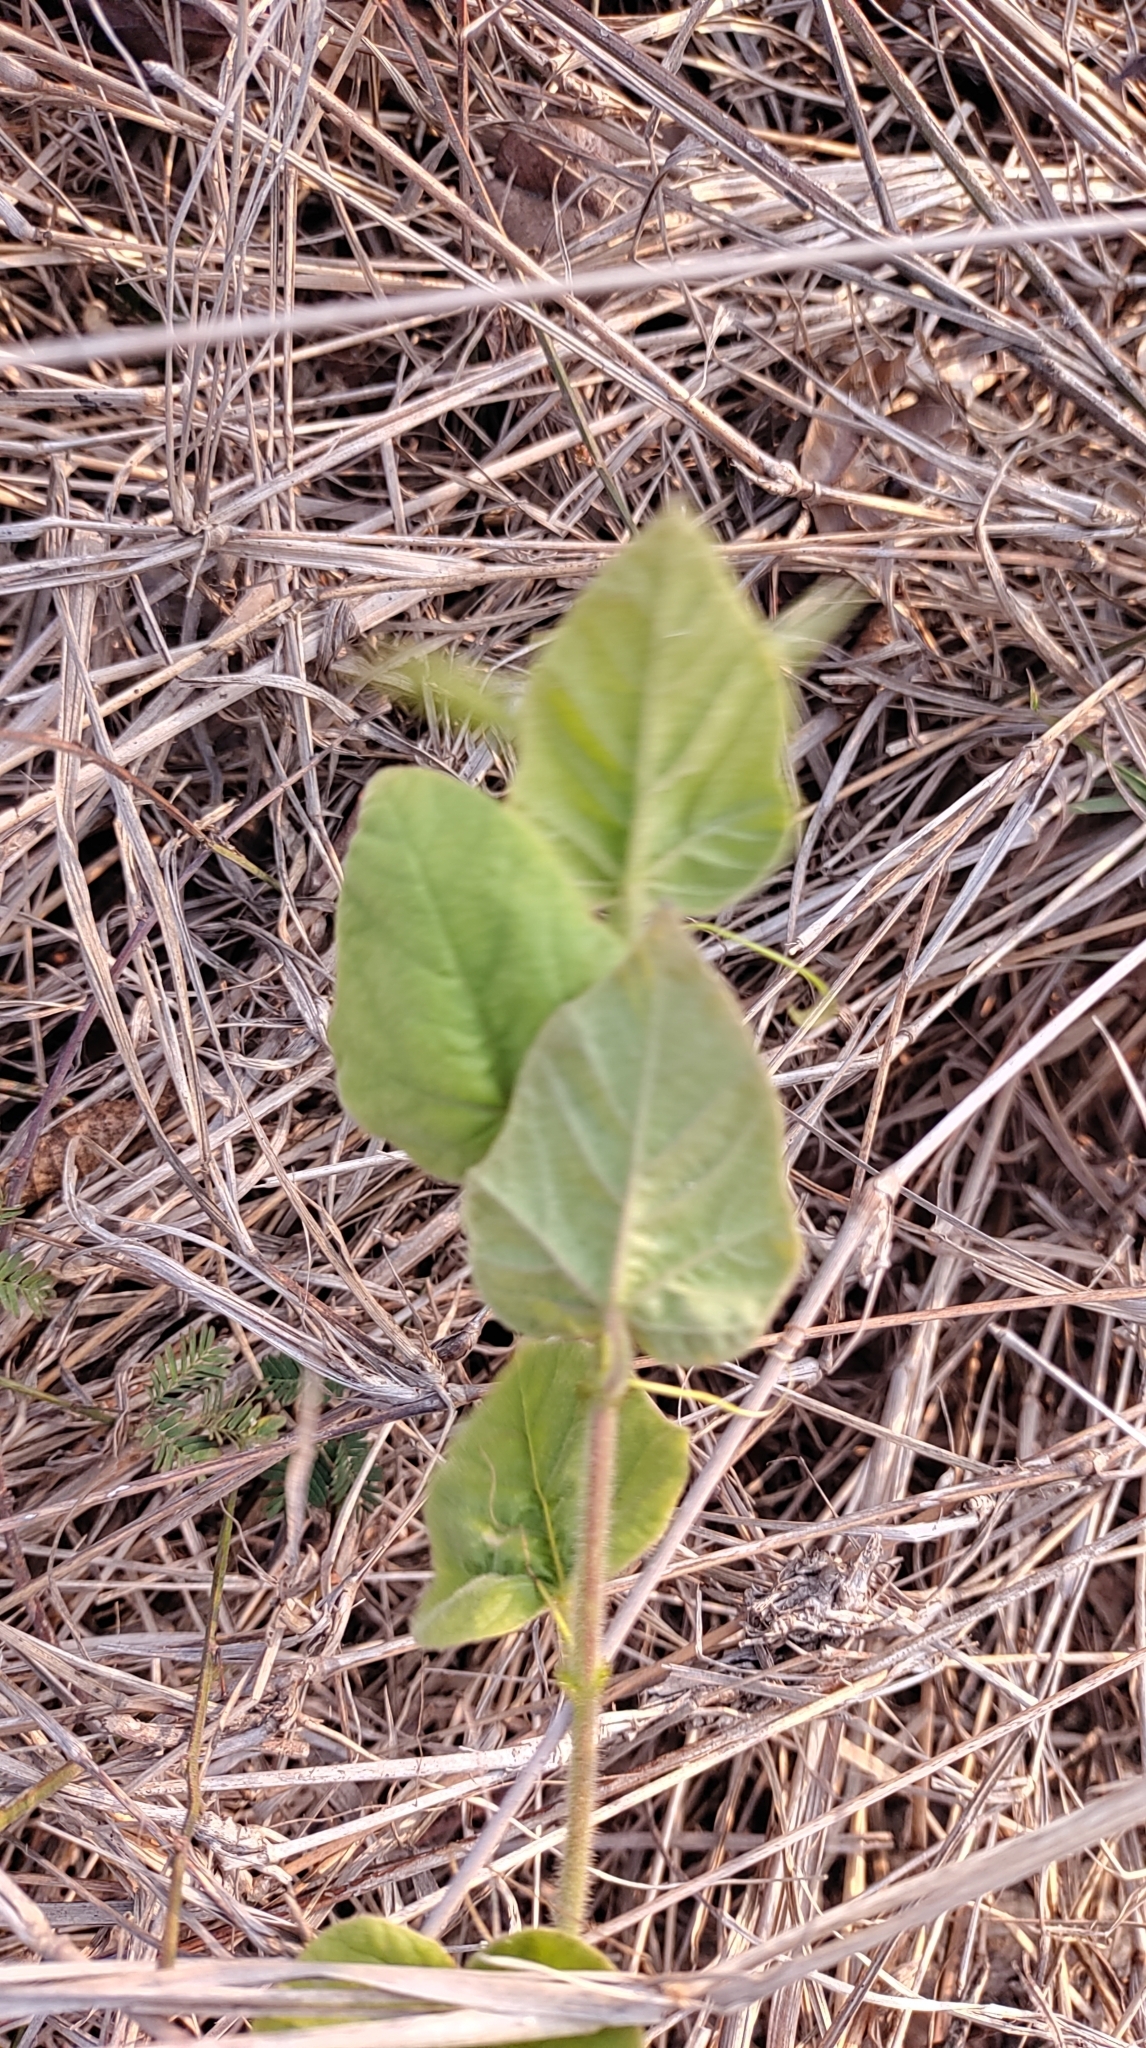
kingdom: Plantae
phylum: Tracheophyta
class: Magnoliopsida
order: Malpighiales
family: Passifloraceae
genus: Passiflora
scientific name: Passiflora vesicaria
